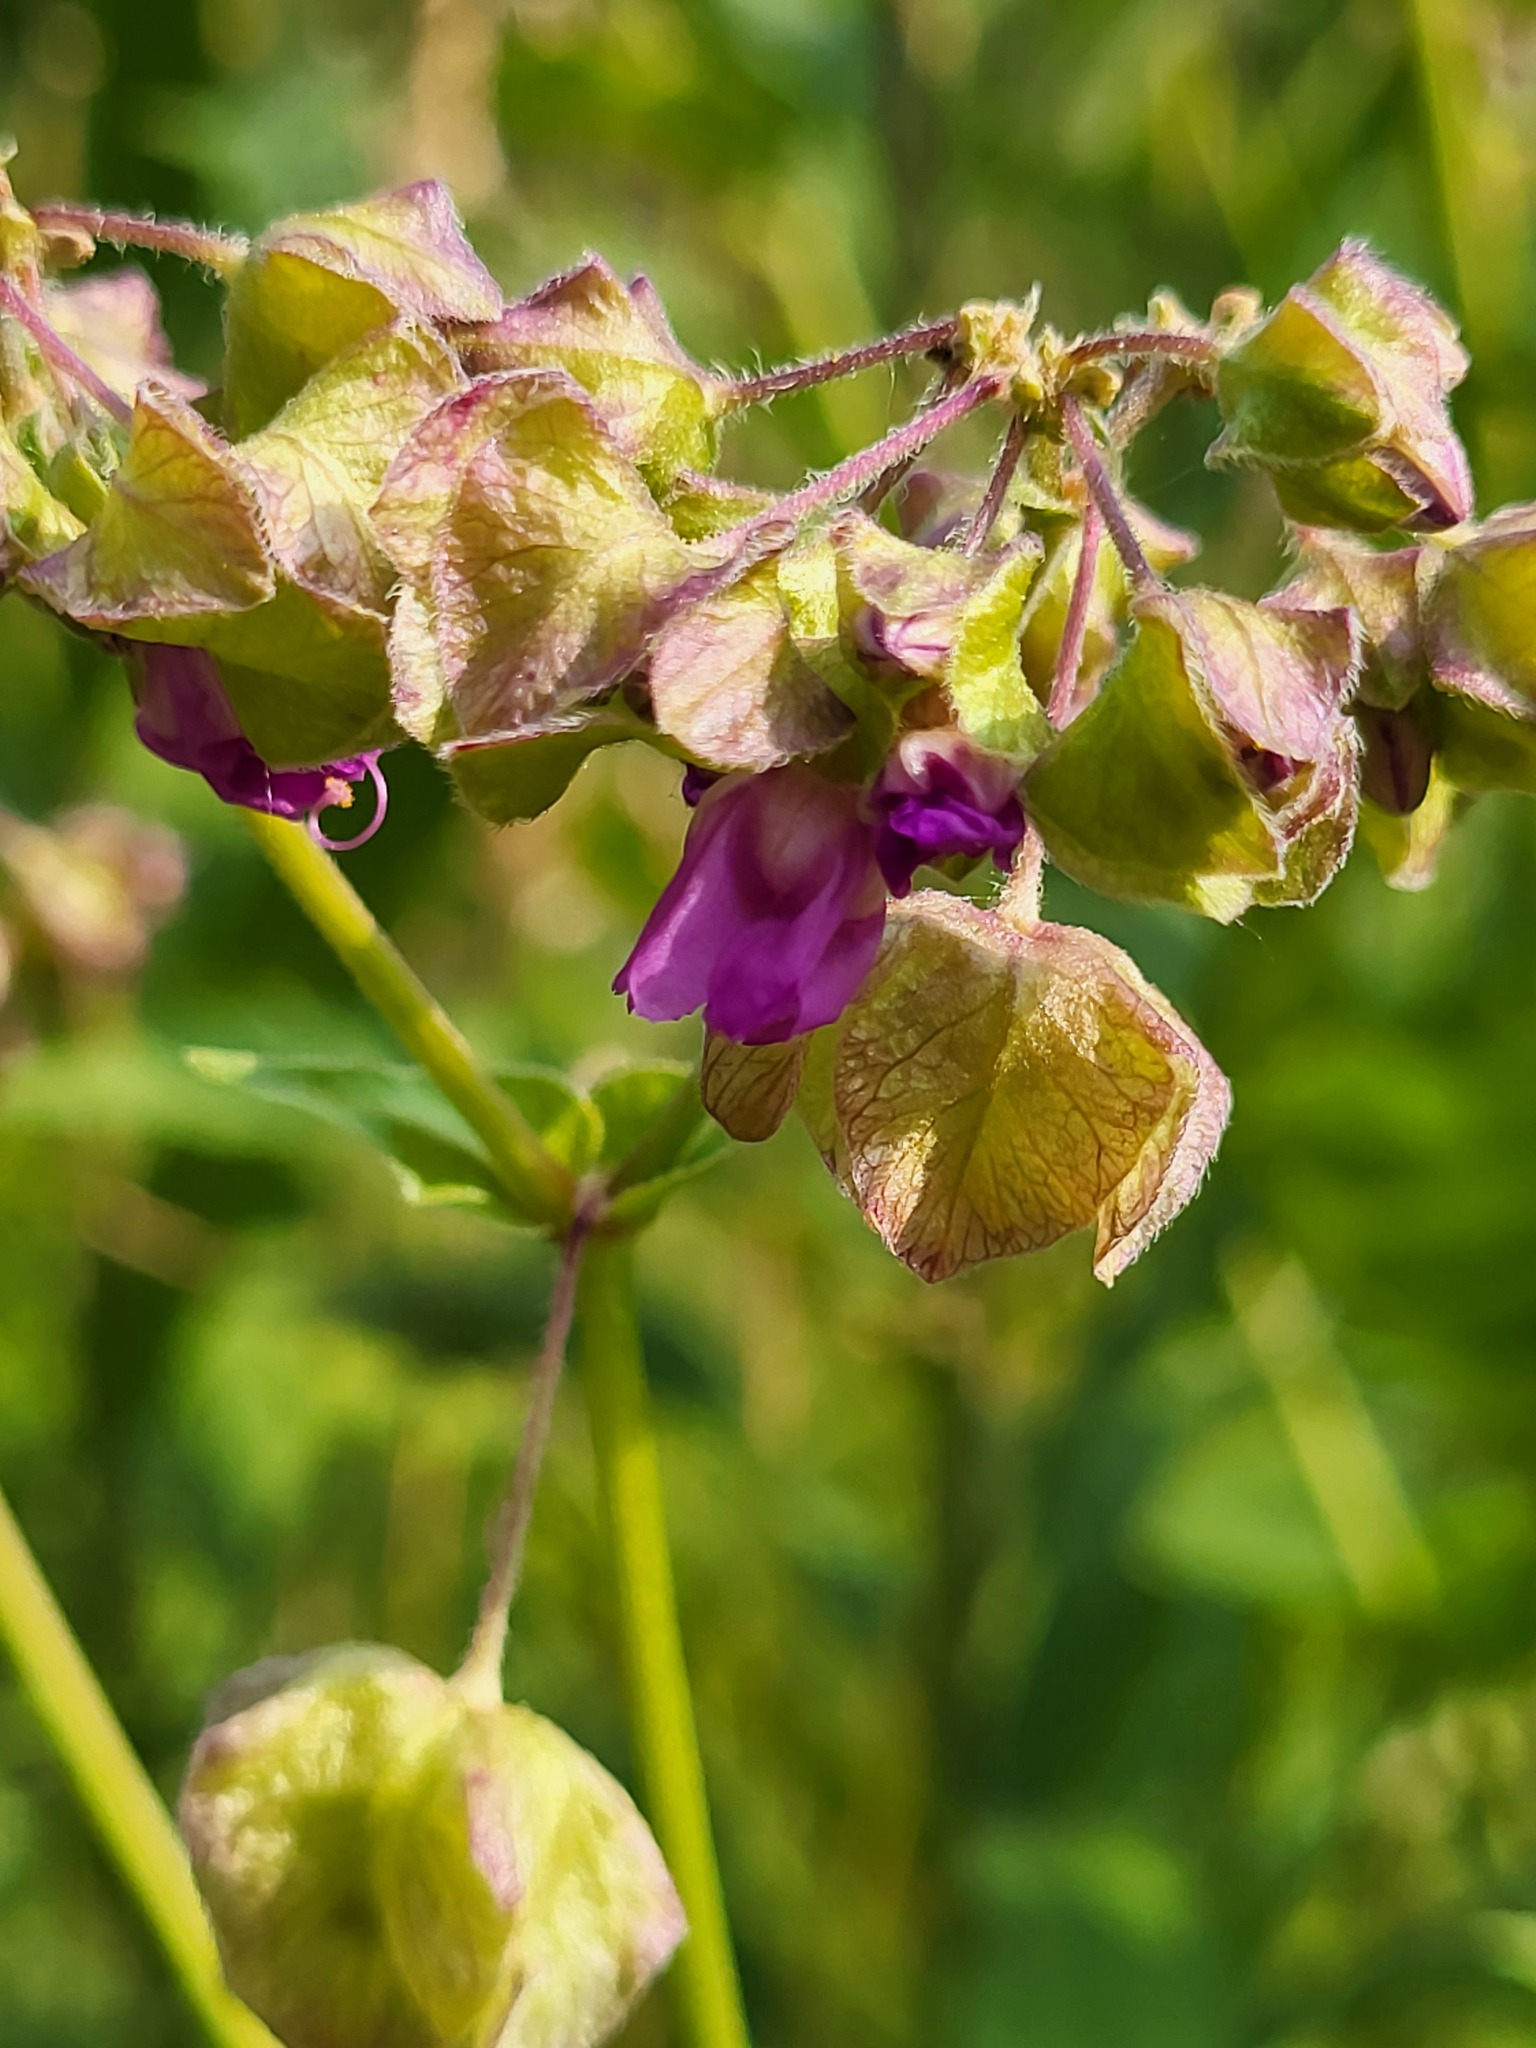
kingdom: Plantae
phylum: Tracheophyta
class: Magnoliopsida
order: Caryophyllales
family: Nyctaginaceae
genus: Mirabilis
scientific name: Mirabilis nyctaginea
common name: Umbrella wort
